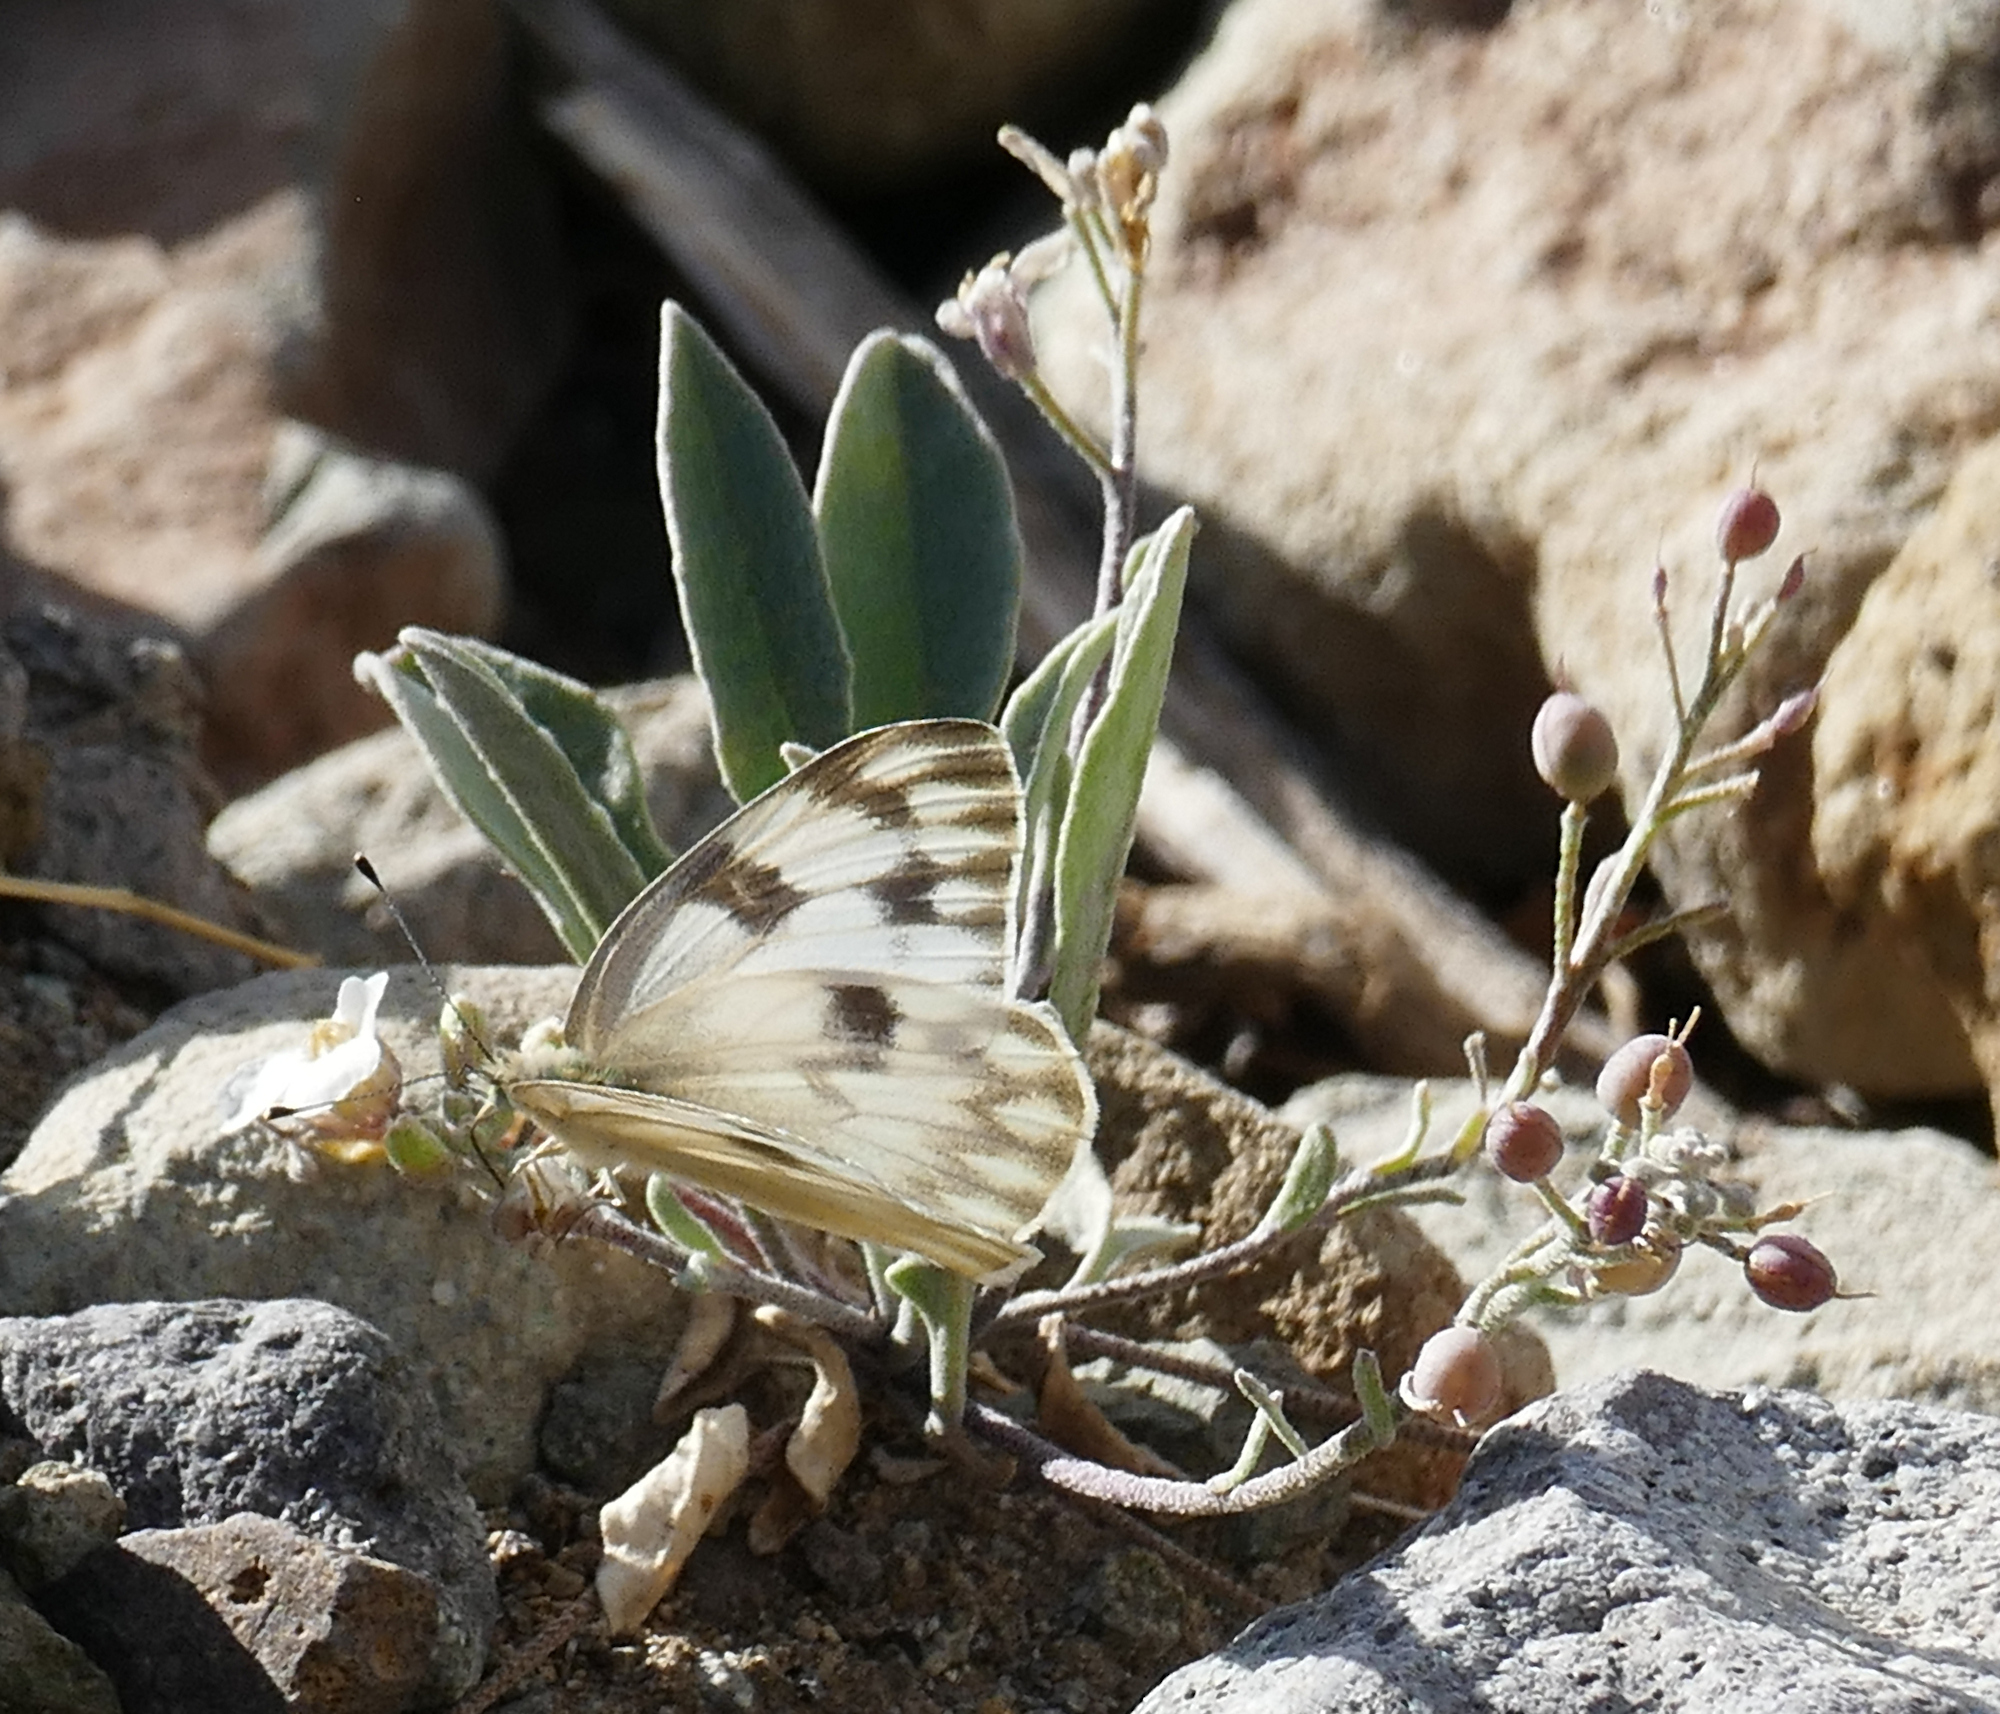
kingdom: Animalia
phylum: Arthropoda
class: Insecta
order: Lepidoptera
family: Pieridae
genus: Pontia
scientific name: Pontia protodice
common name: Checkered white
